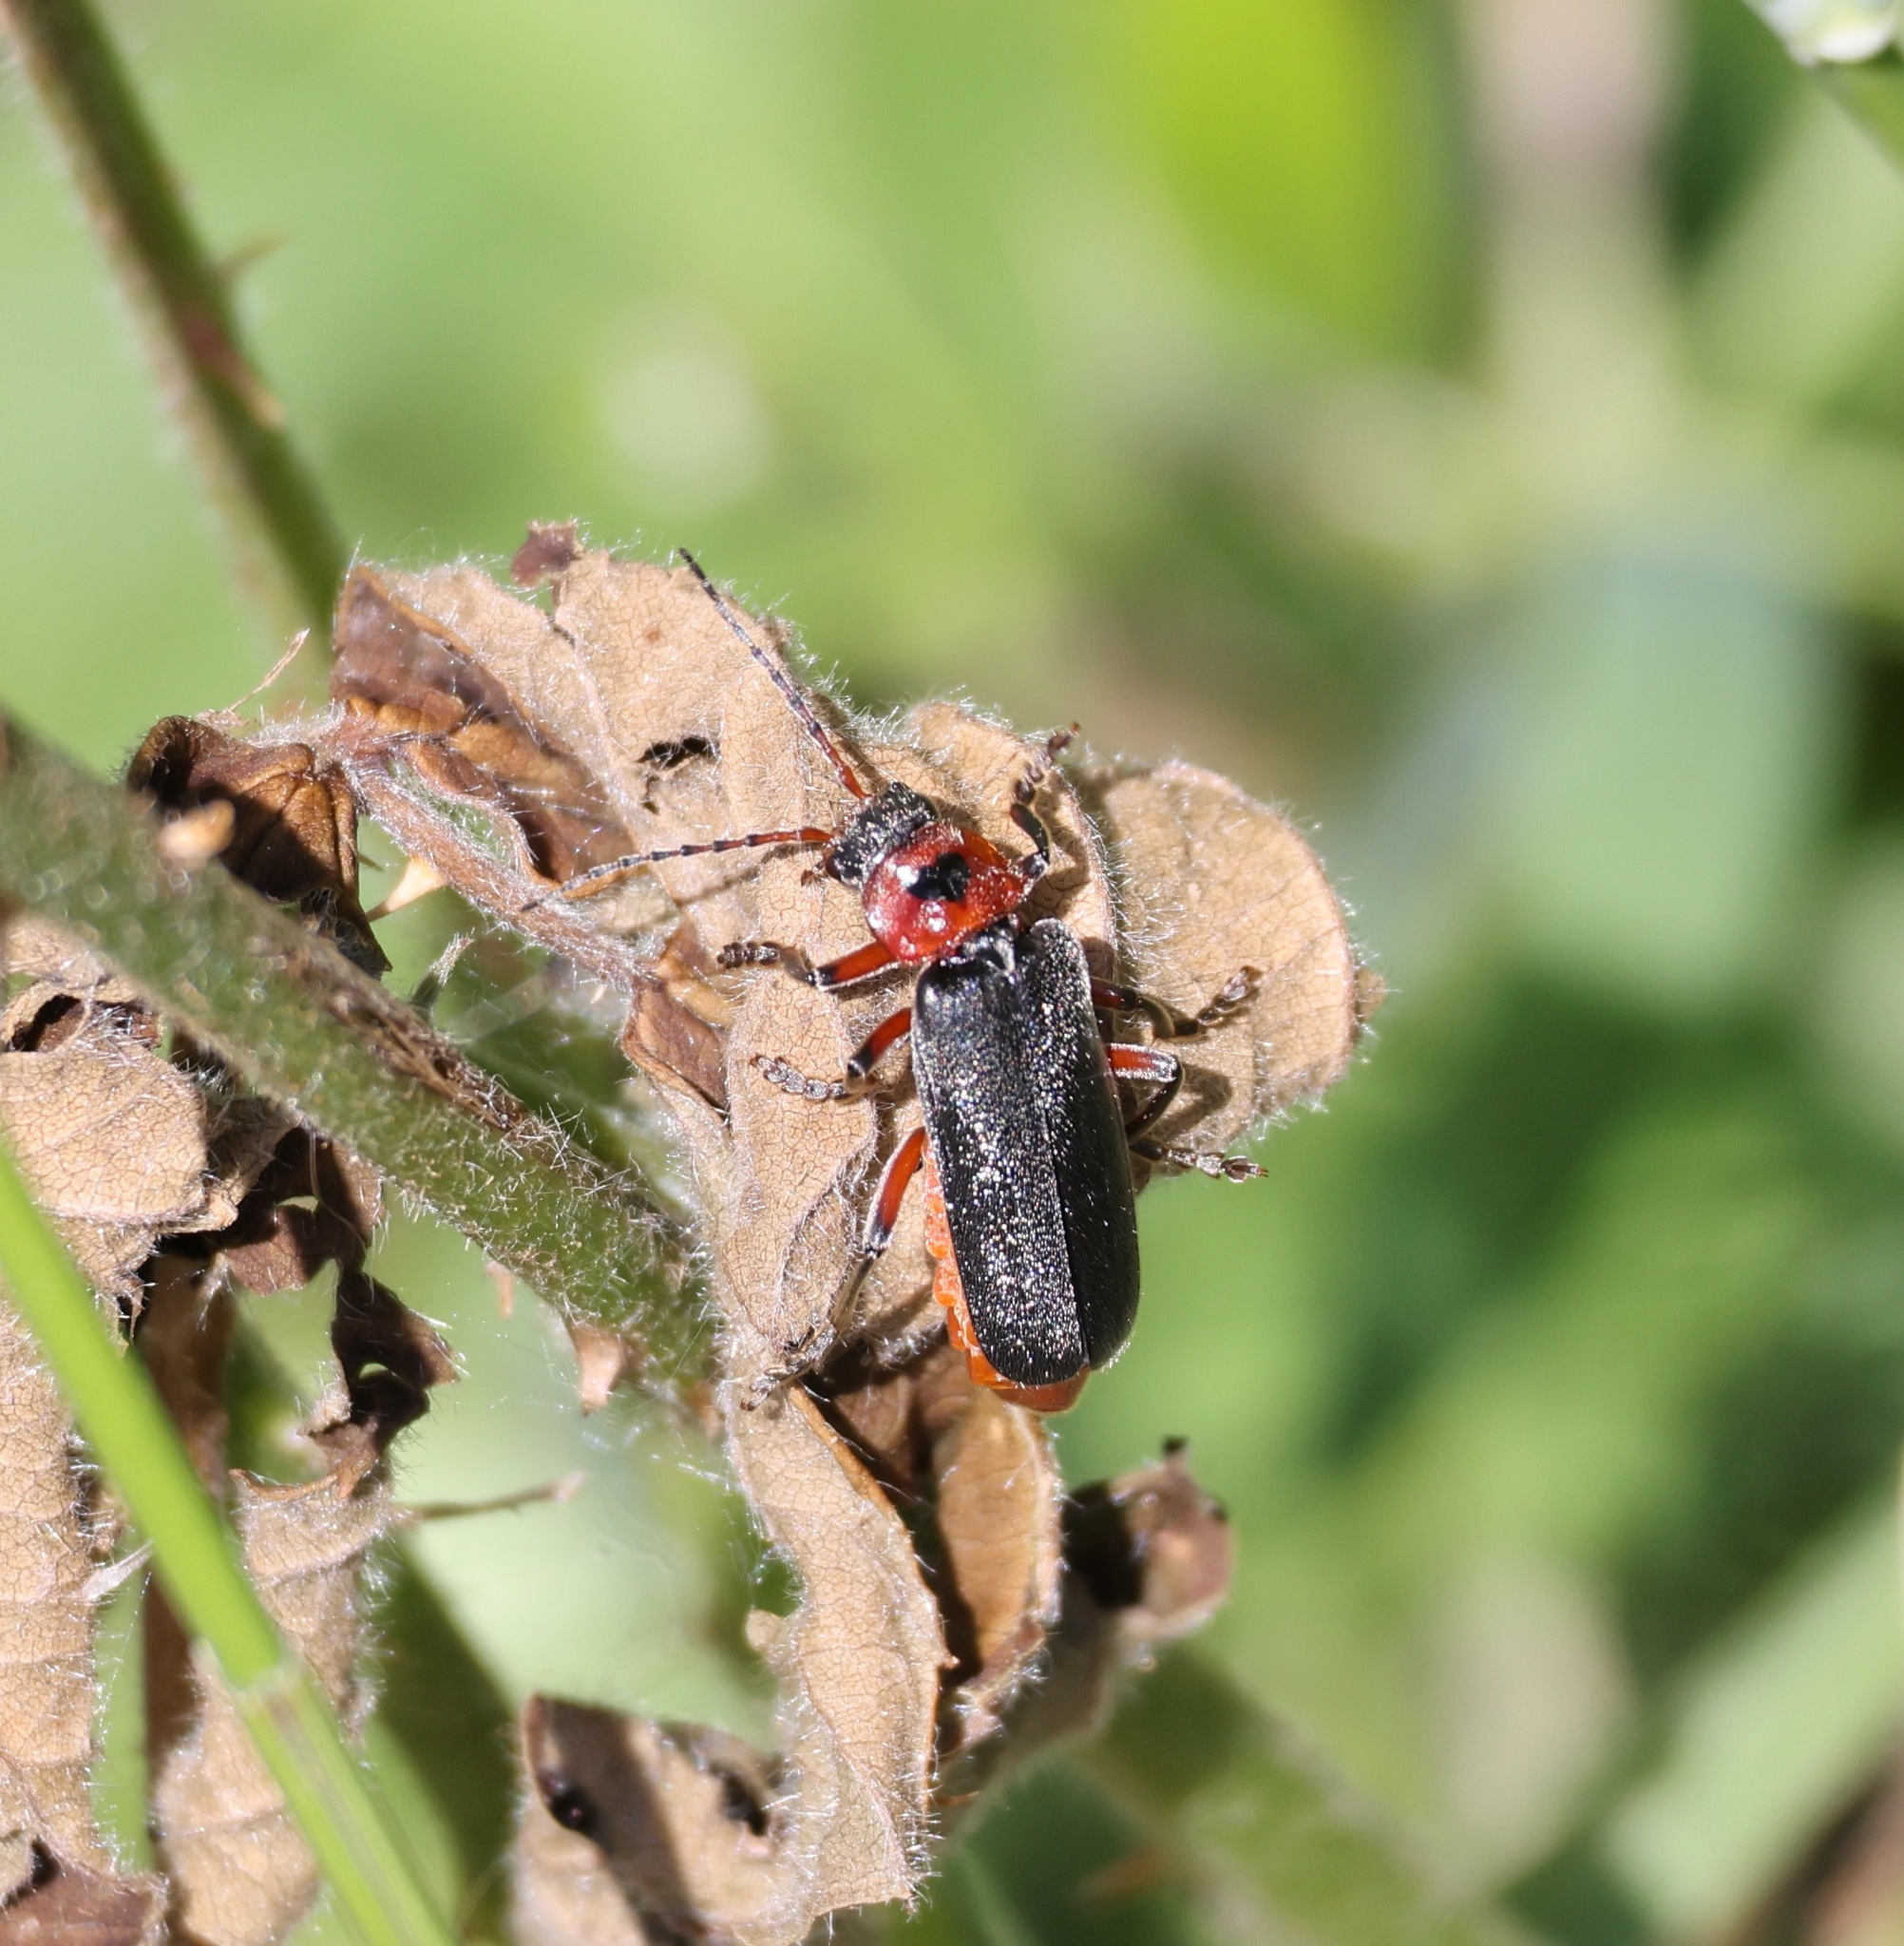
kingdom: Animalia
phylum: Arthropoda
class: Insecta
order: Coleoptera
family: Cantharidae
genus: Cantharis
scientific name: Cantharis rustica
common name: Soldier beetle
